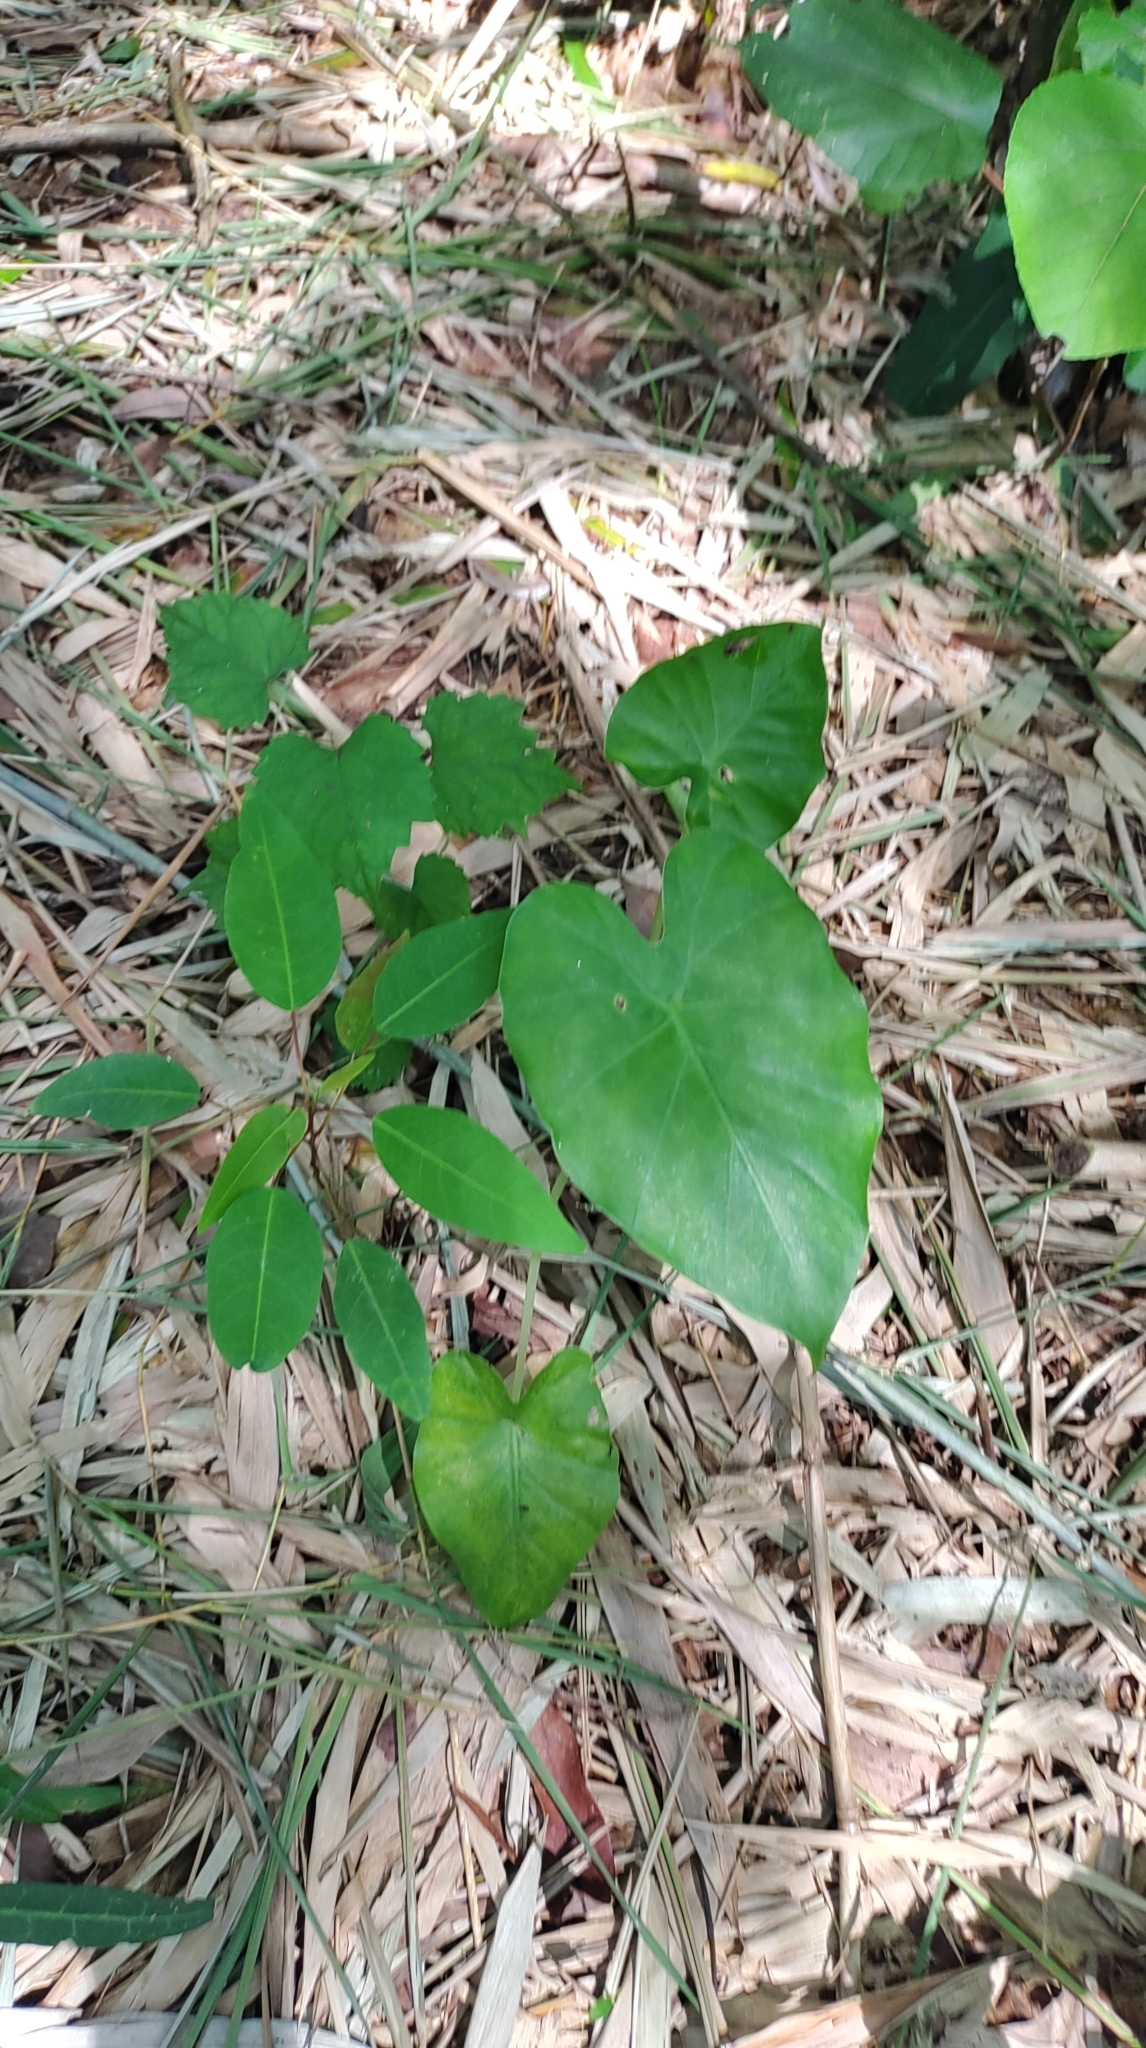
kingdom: Plantae
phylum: Tracheophyta
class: Liliopsida
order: Alismatales
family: Araceae
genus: Alocasia
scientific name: Alocasia odora
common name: Asian taro
